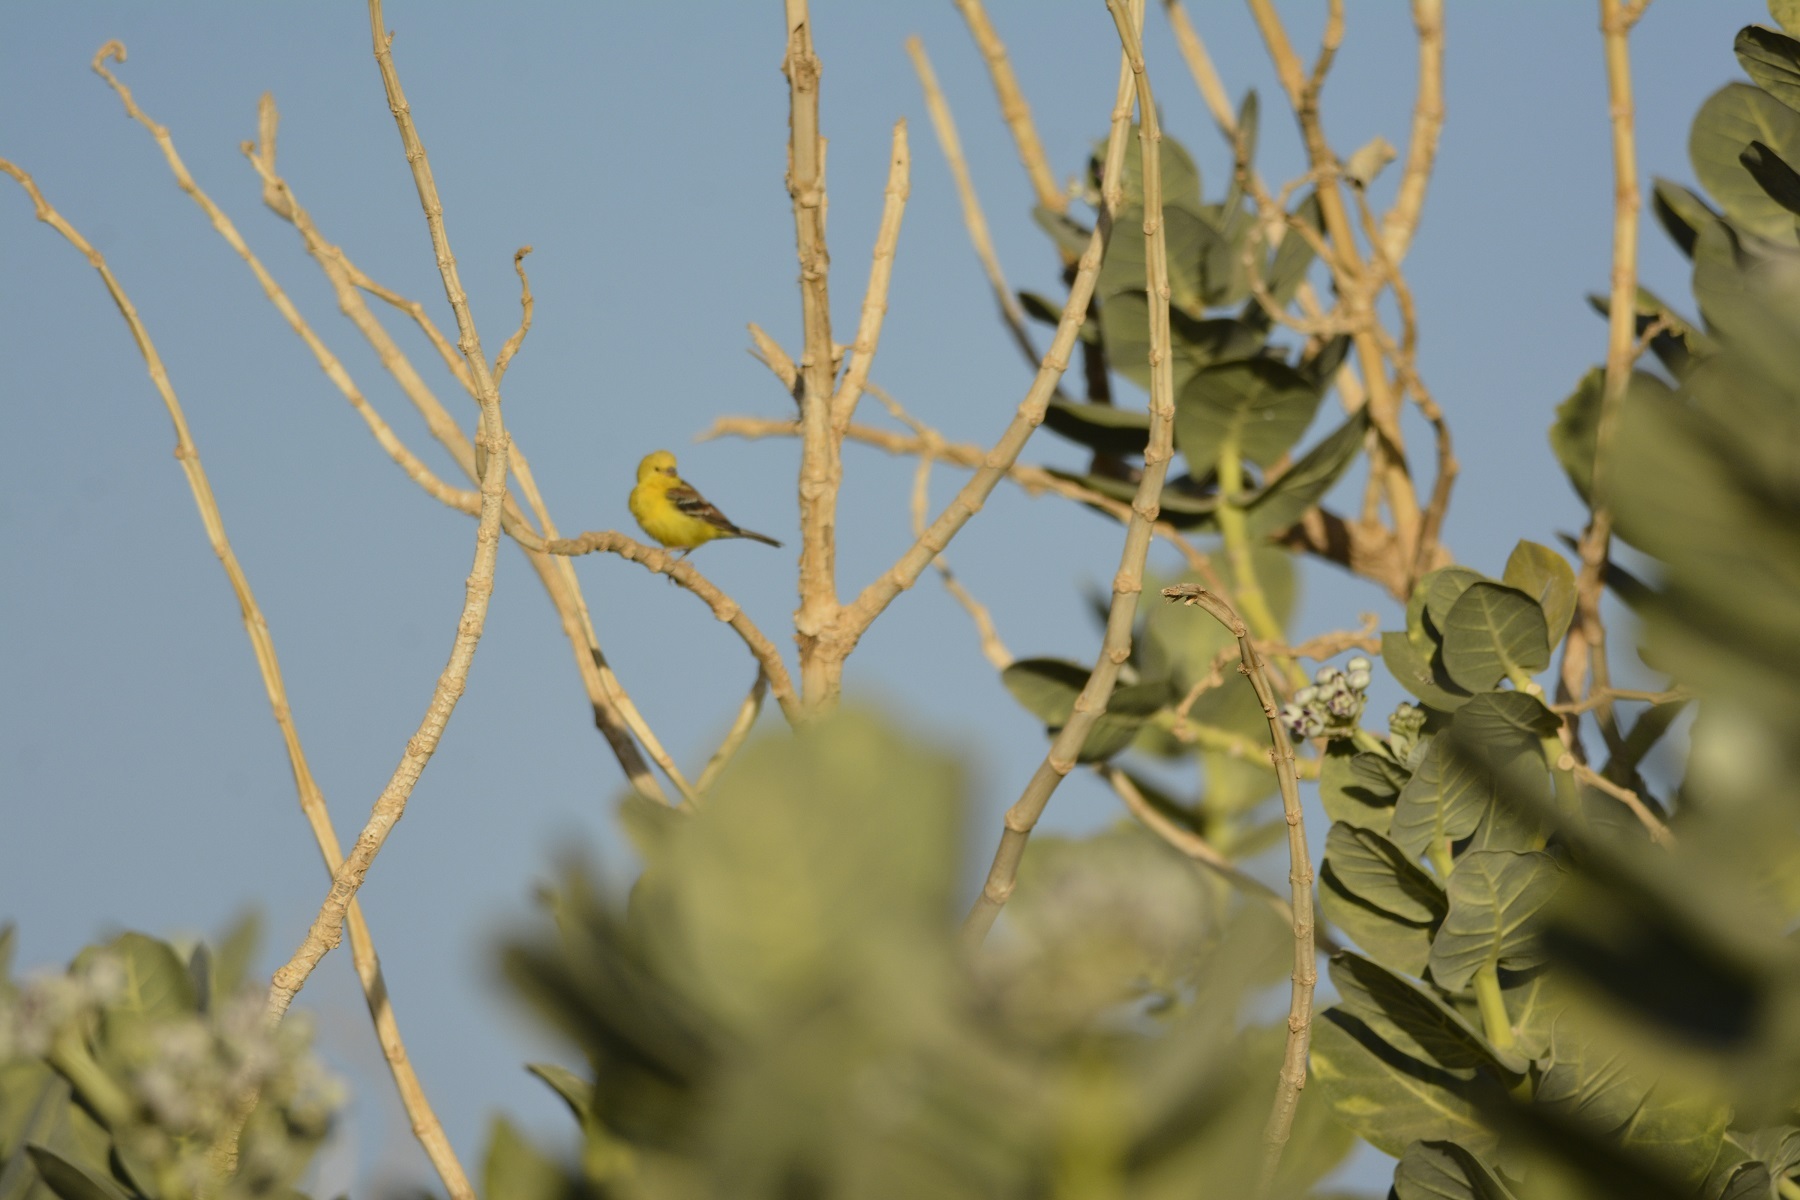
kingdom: Animalia
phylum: Chordata
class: Aves
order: Passeriformes
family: Passeridae
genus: Passer
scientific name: Passer luteus
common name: Sudan golden sparrow
